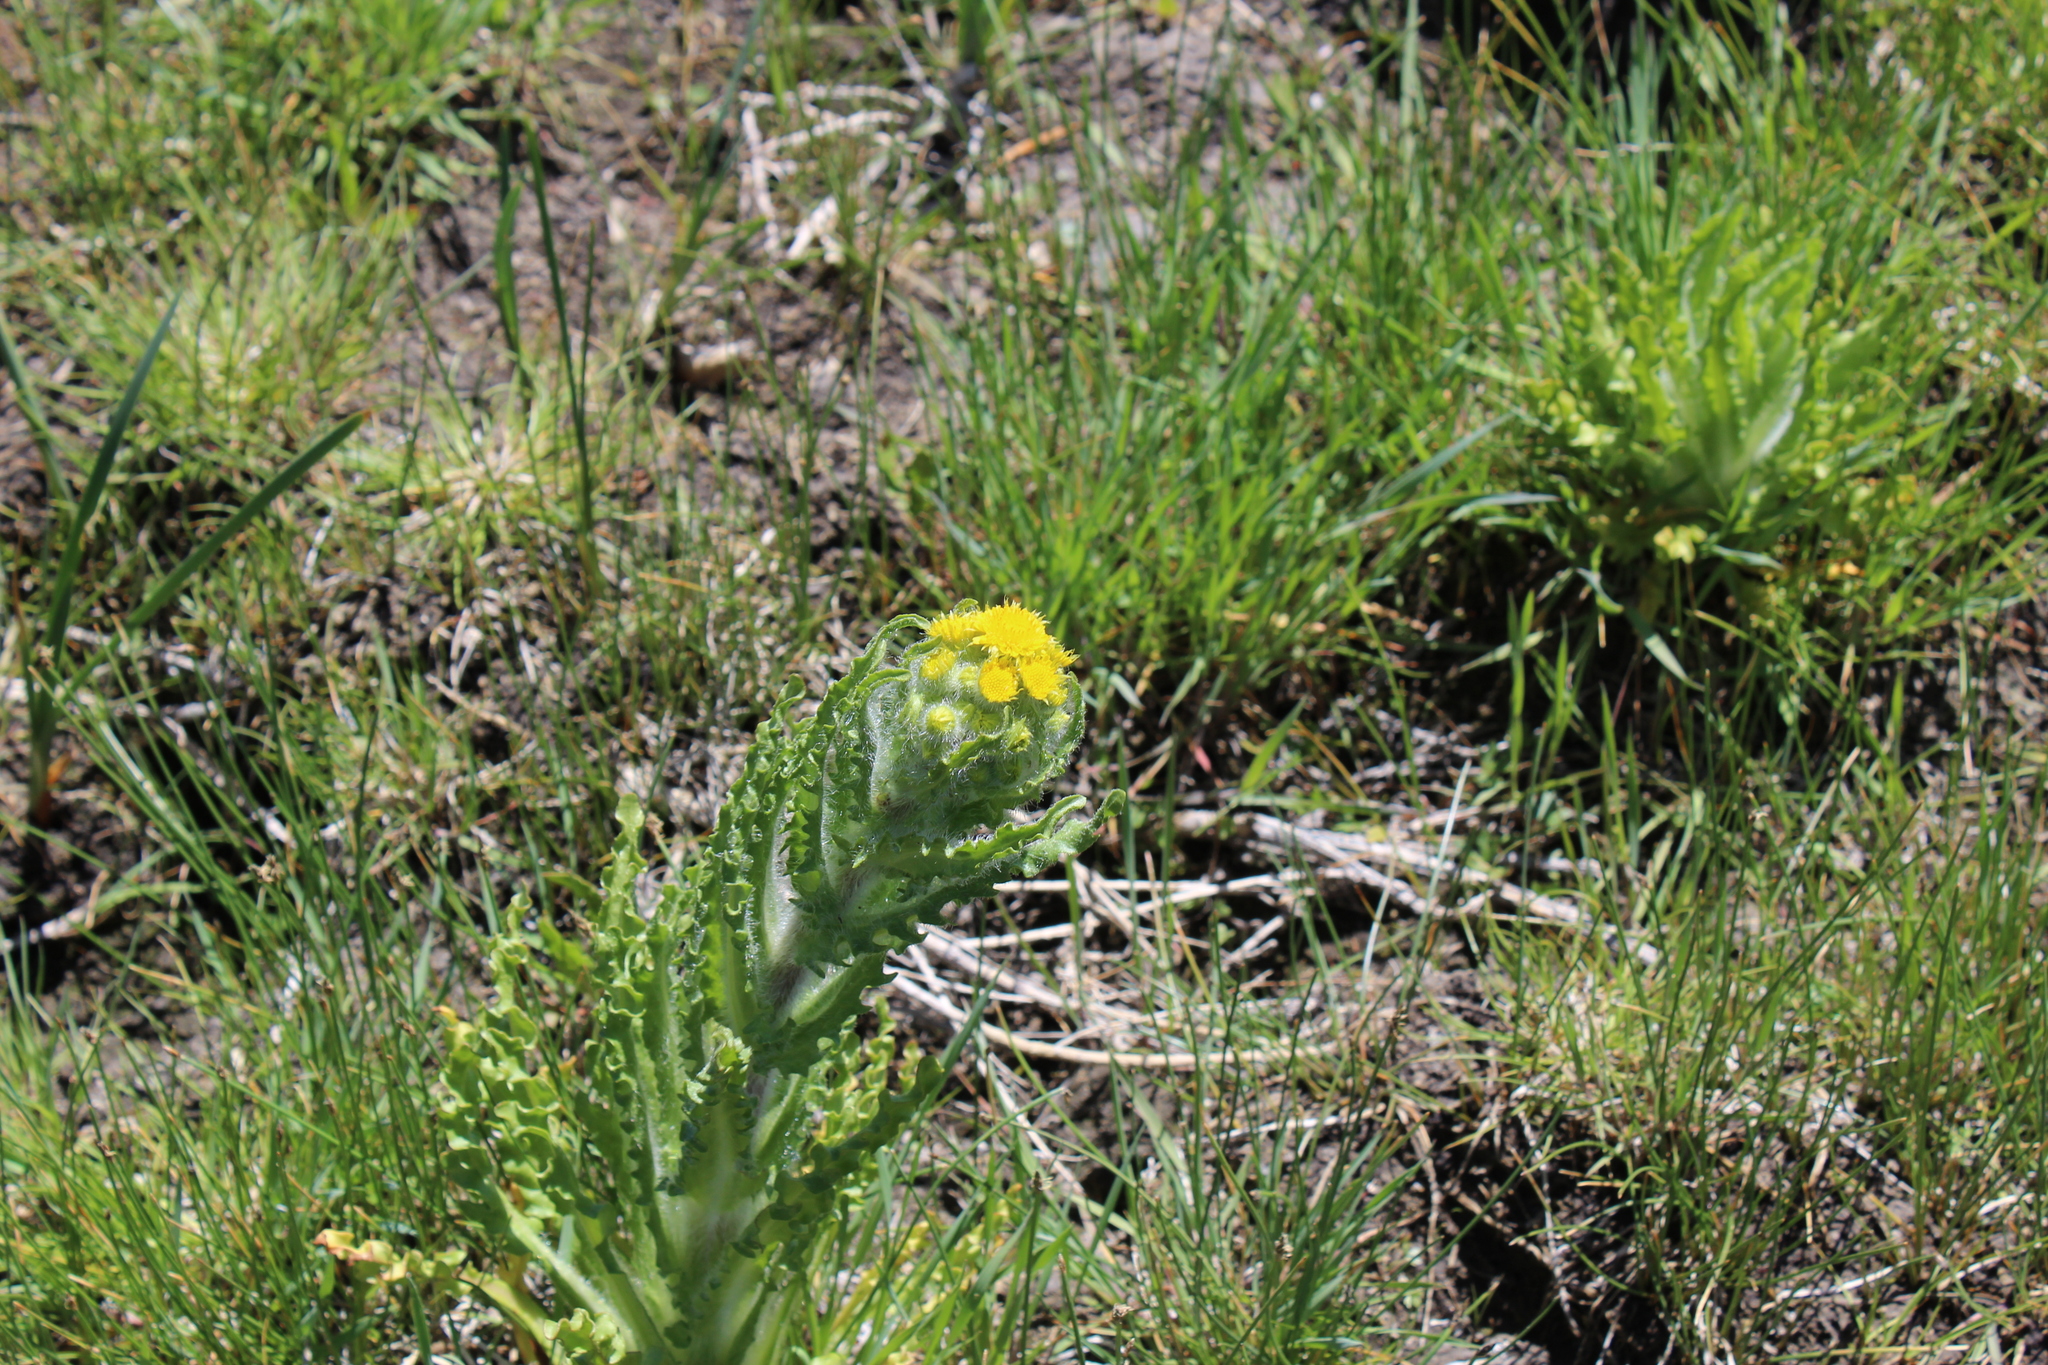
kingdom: Plantae
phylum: Tracheophyta
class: Magnoliopsida
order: Asterales
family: Asteraceae
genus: Tephroseris
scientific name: Tephroseris palustris
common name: Marsh fleawort
